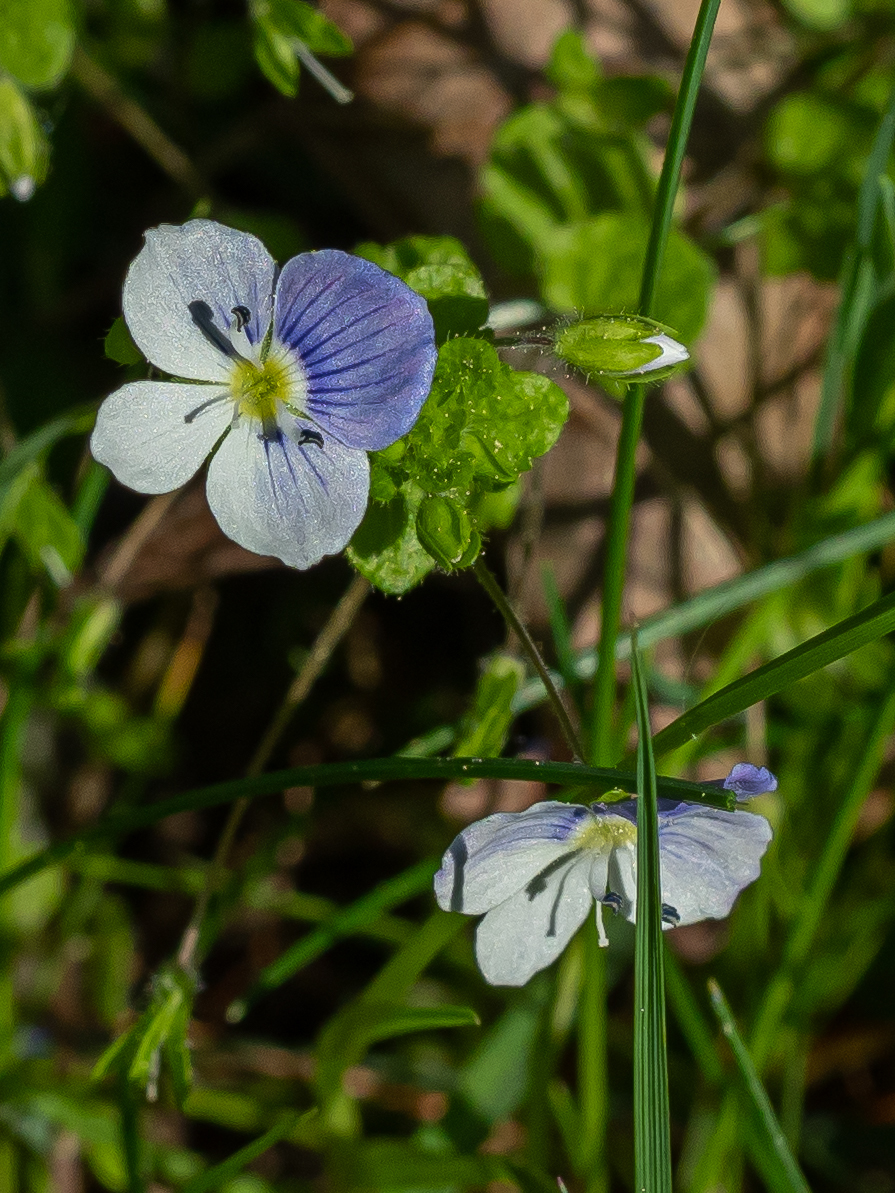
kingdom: Plantae
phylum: Tracheophyta
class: Magnoliopsida
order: Lamiales
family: Plantaginaceae
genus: Veronica
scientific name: Veronica filiformis
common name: Slender speedwell
